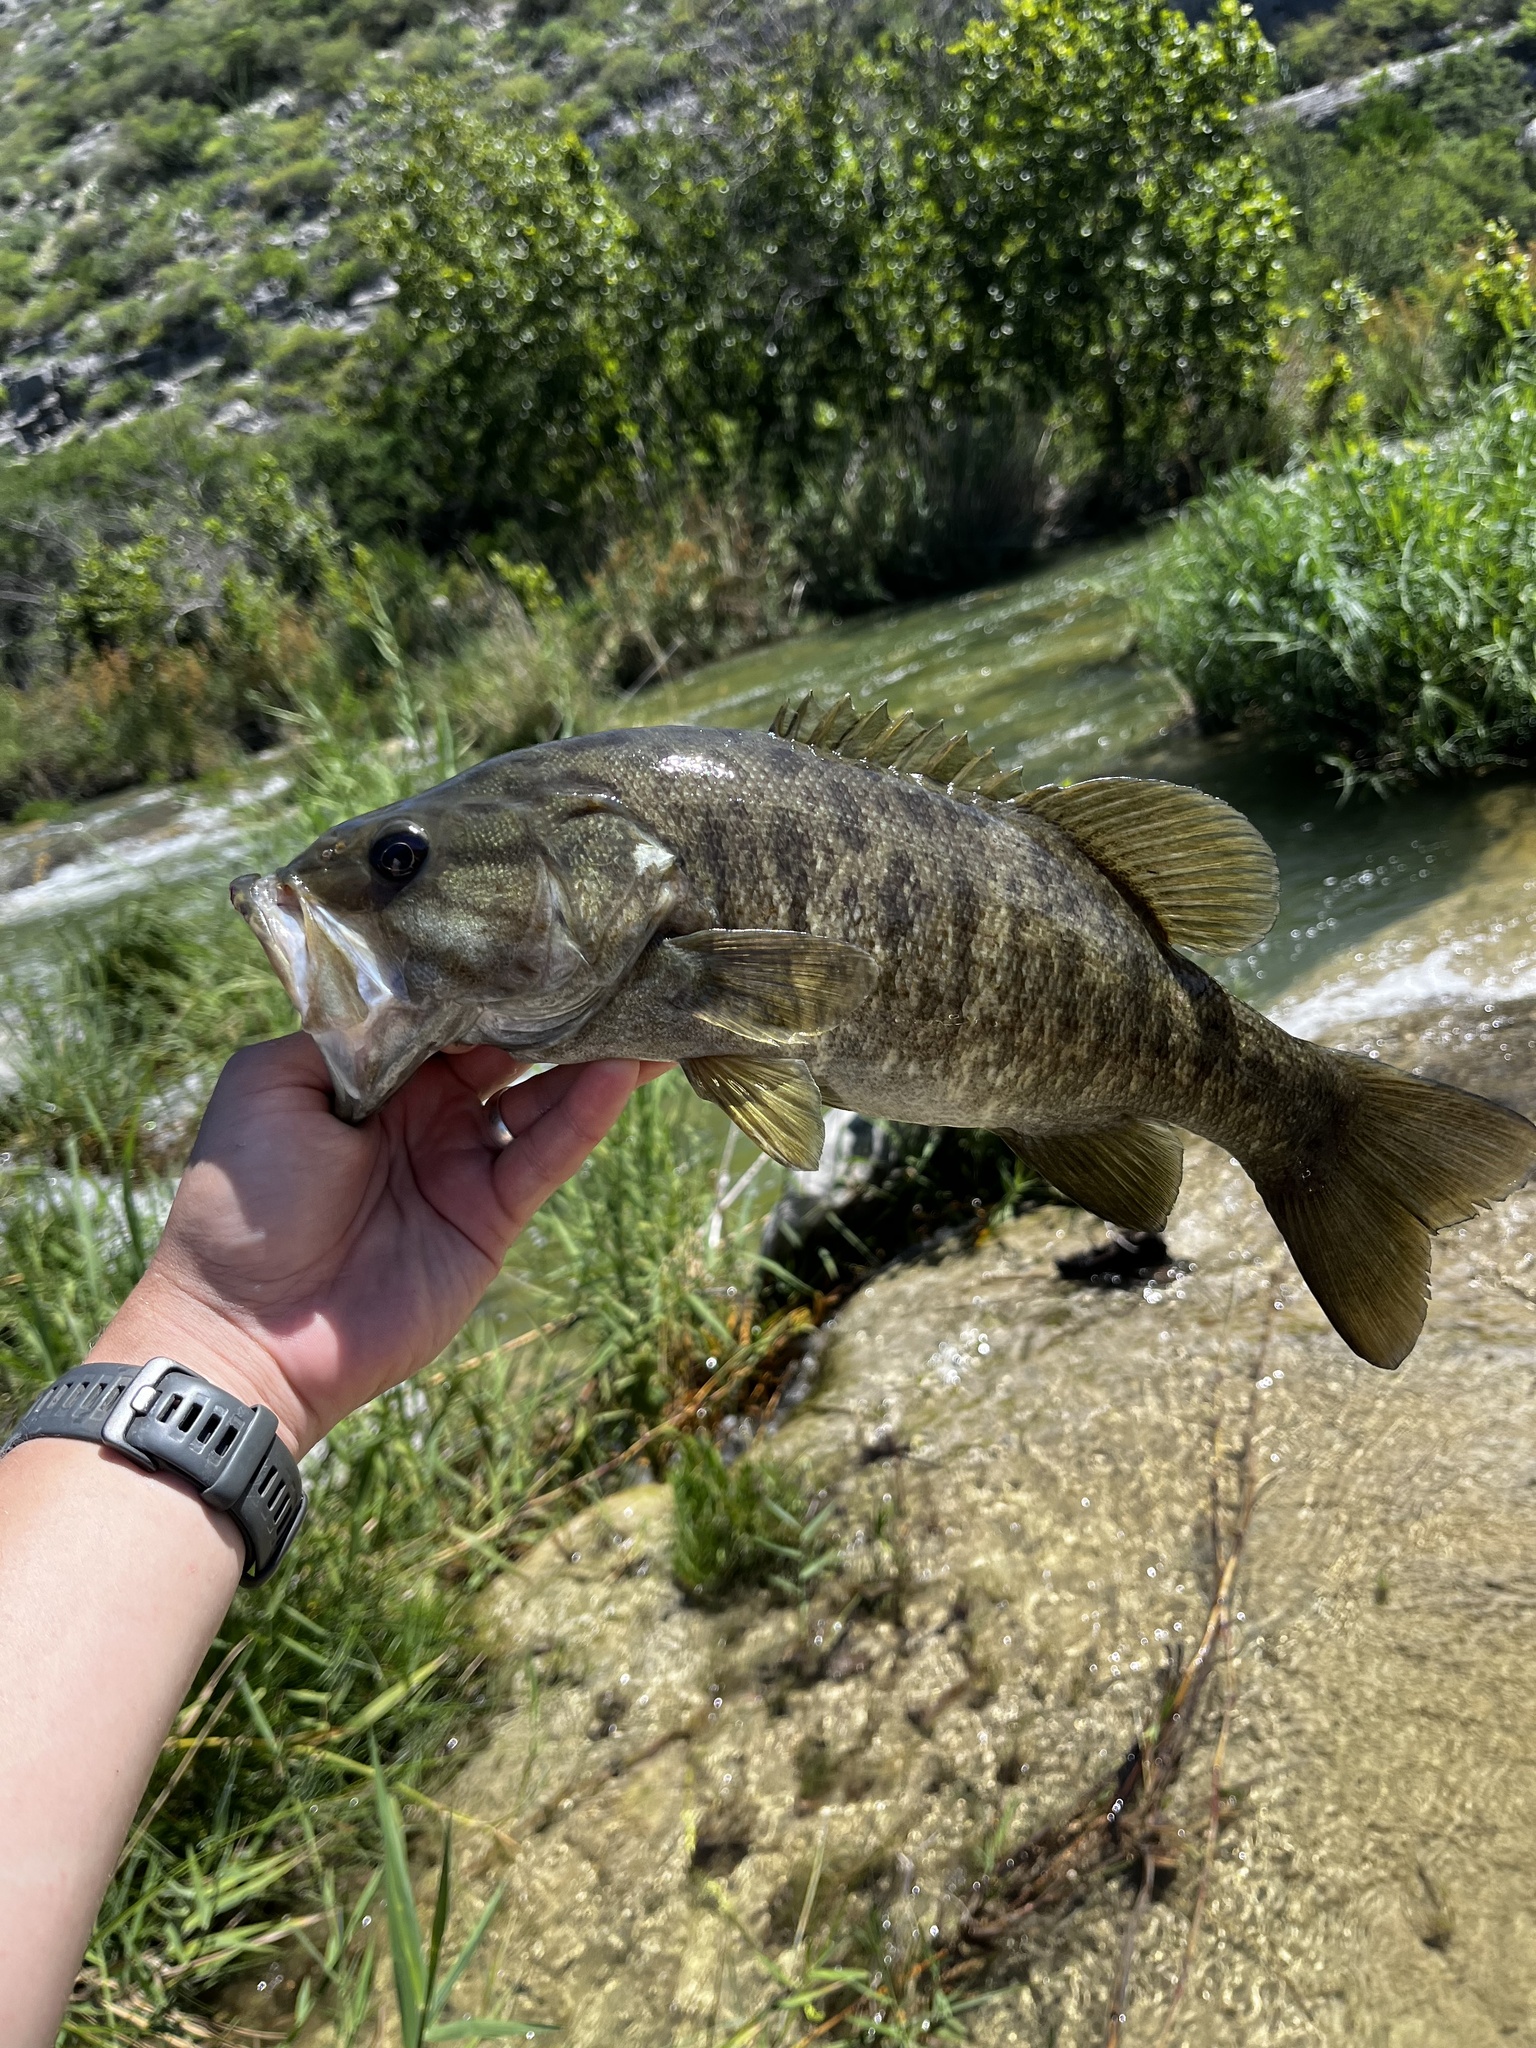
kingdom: Animalia
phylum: Chordata
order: Perciformes
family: Centrarchidae
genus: Micropterus
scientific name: Micropterus dolomieu
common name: Smallmouth bass
